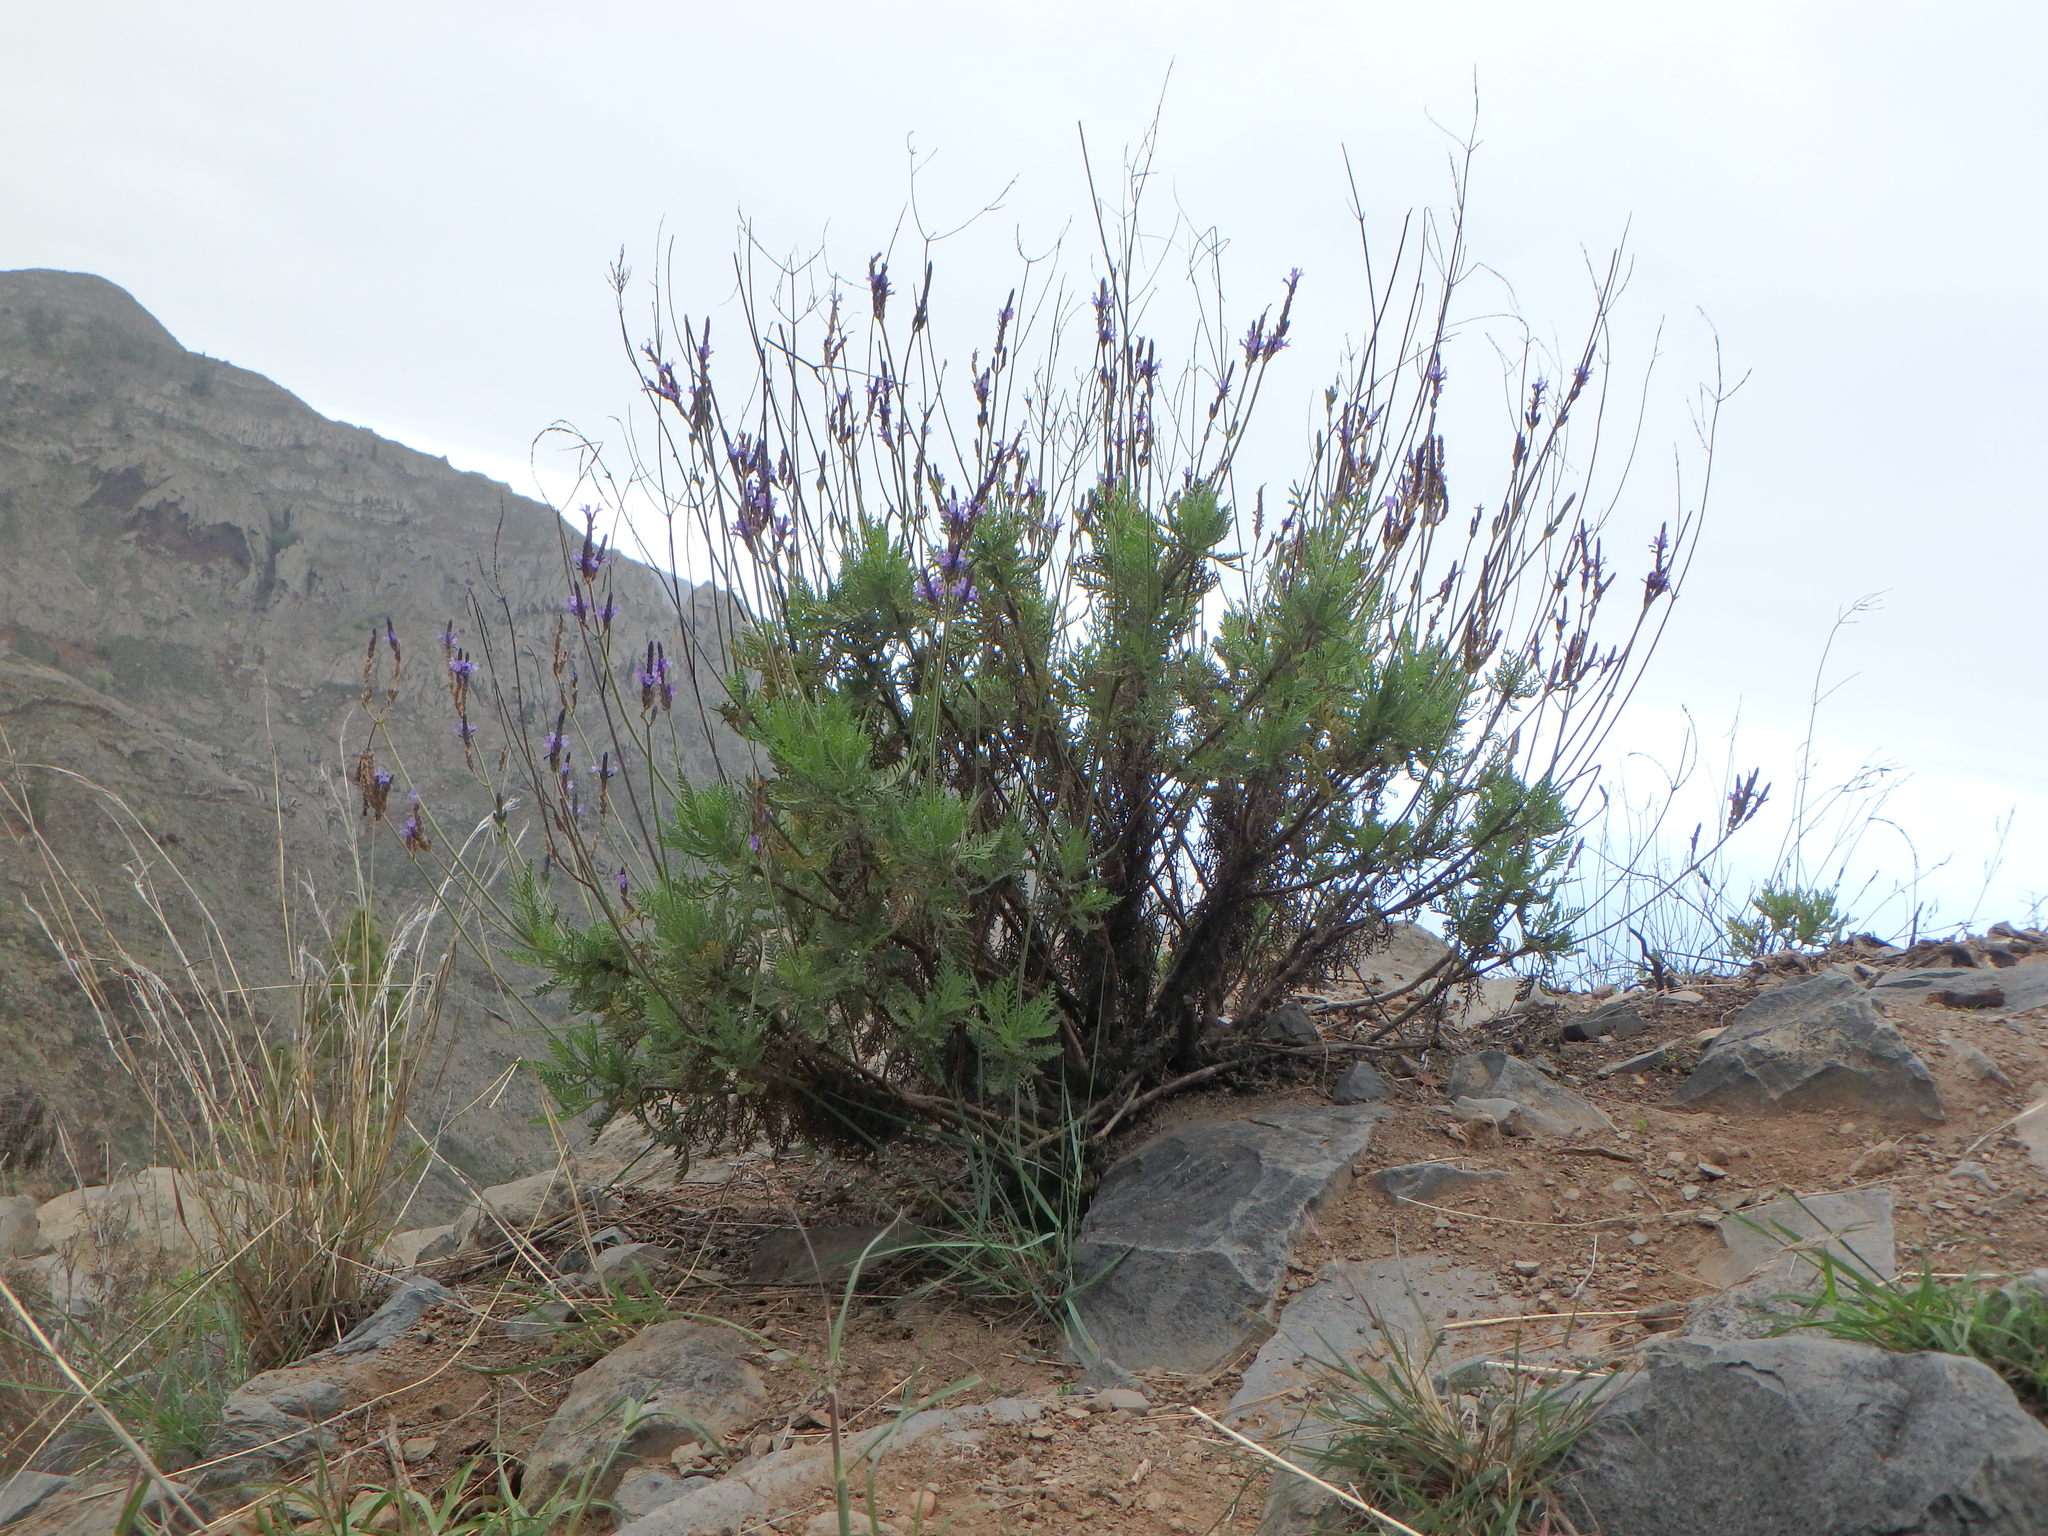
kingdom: Plantae
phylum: Tracheophyta
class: Magnoliopsida
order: Lamiales
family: Lamiaceae
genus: Lavandula
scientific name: Lavandula canariensis
